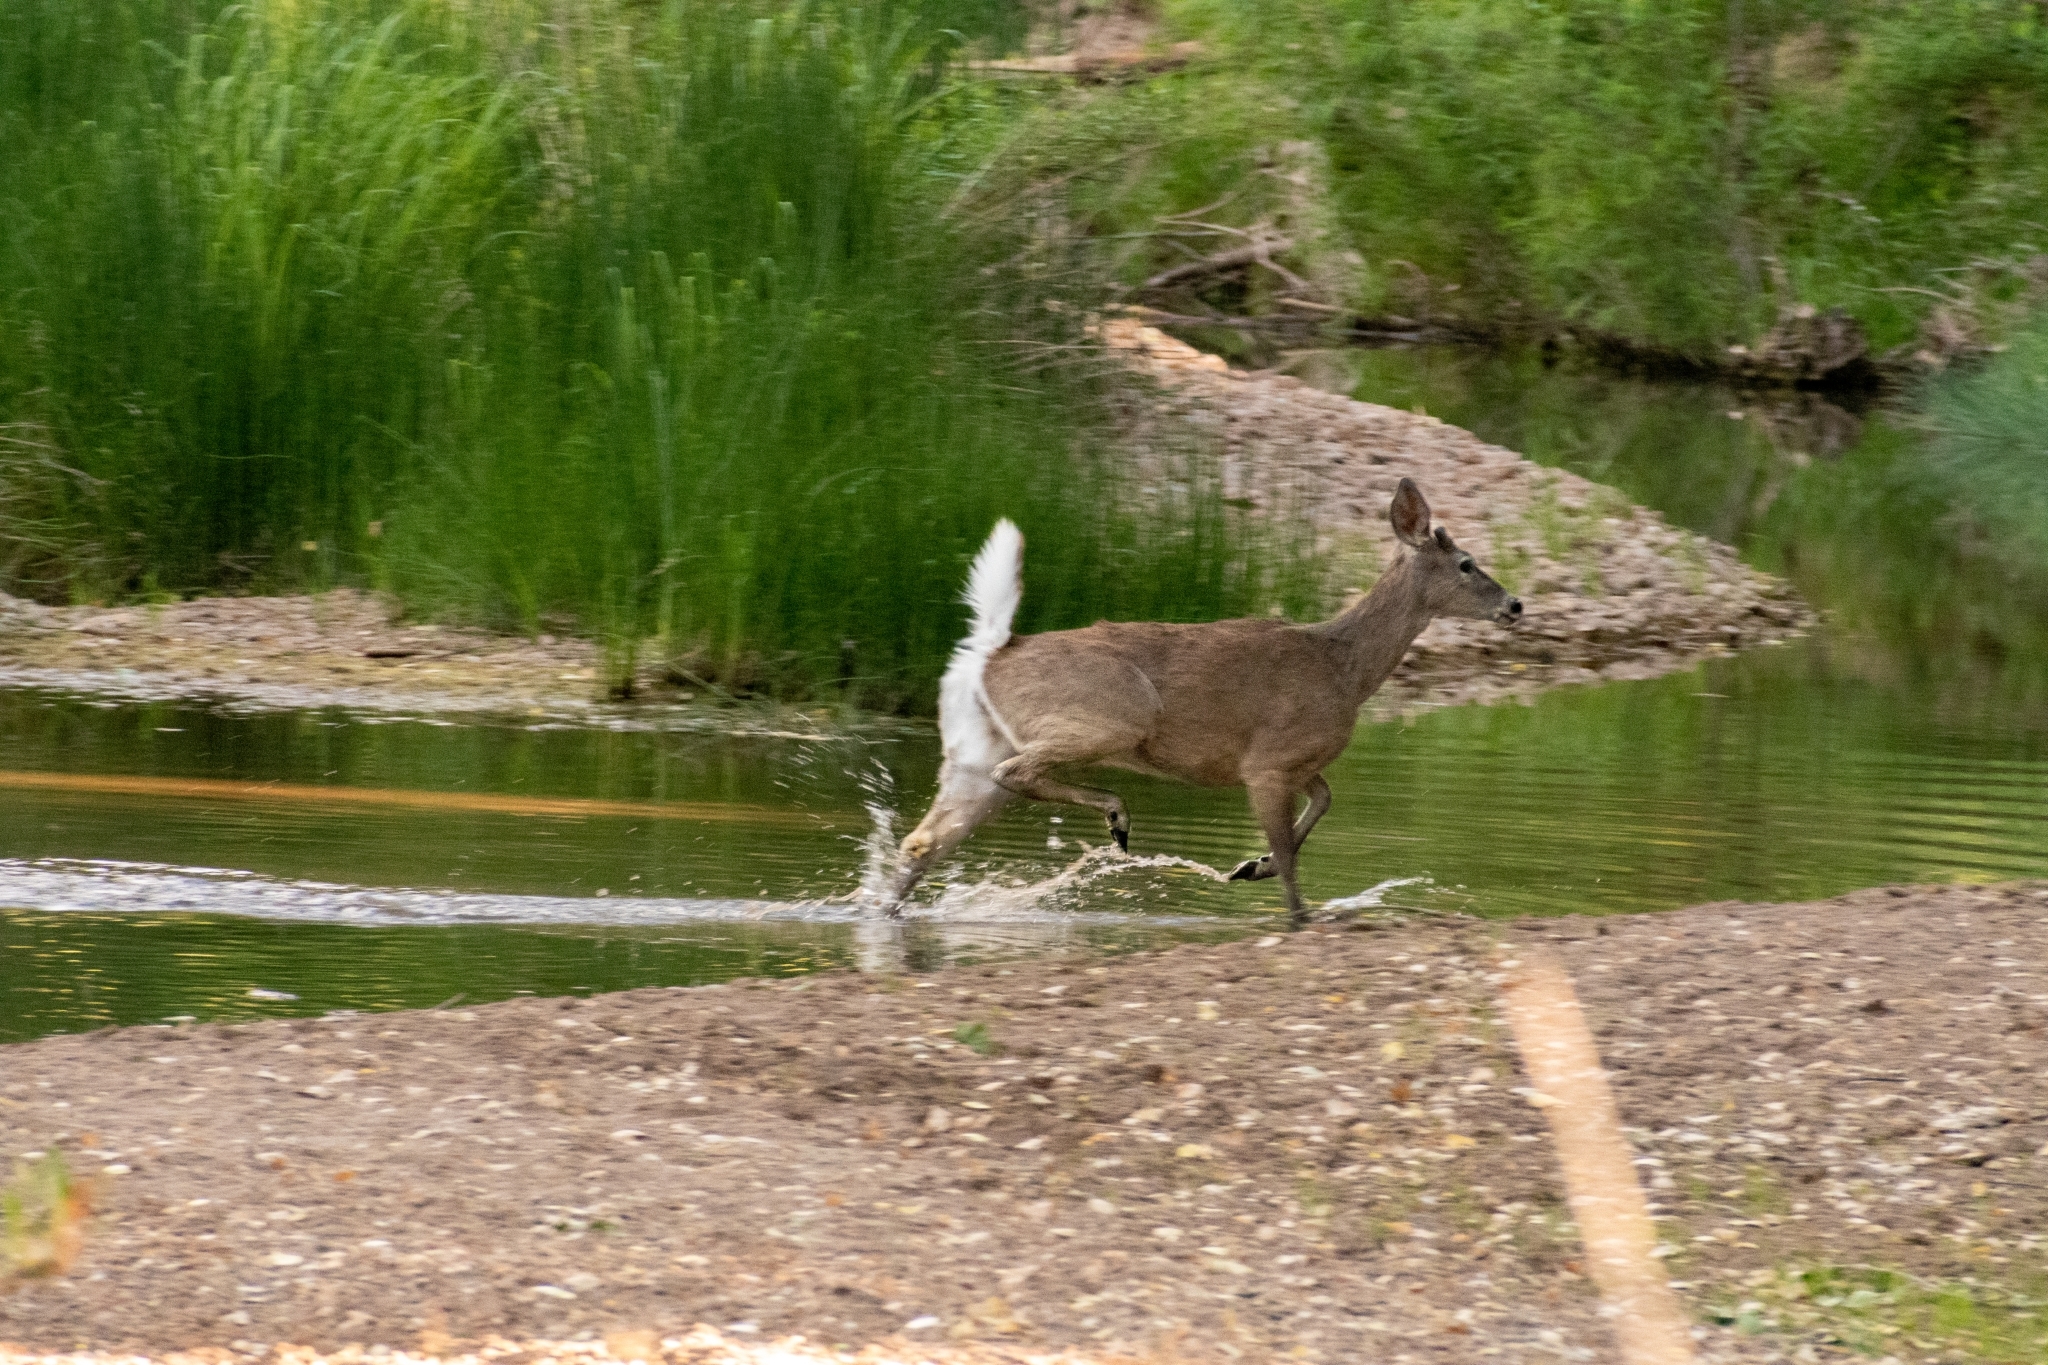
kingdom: Animalia
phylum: Chordata
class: Mammalia
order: Artiodactyla
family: Cervidae
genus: Odocoileus
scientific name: Odocoileus virginianus
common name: White-tailed deer
